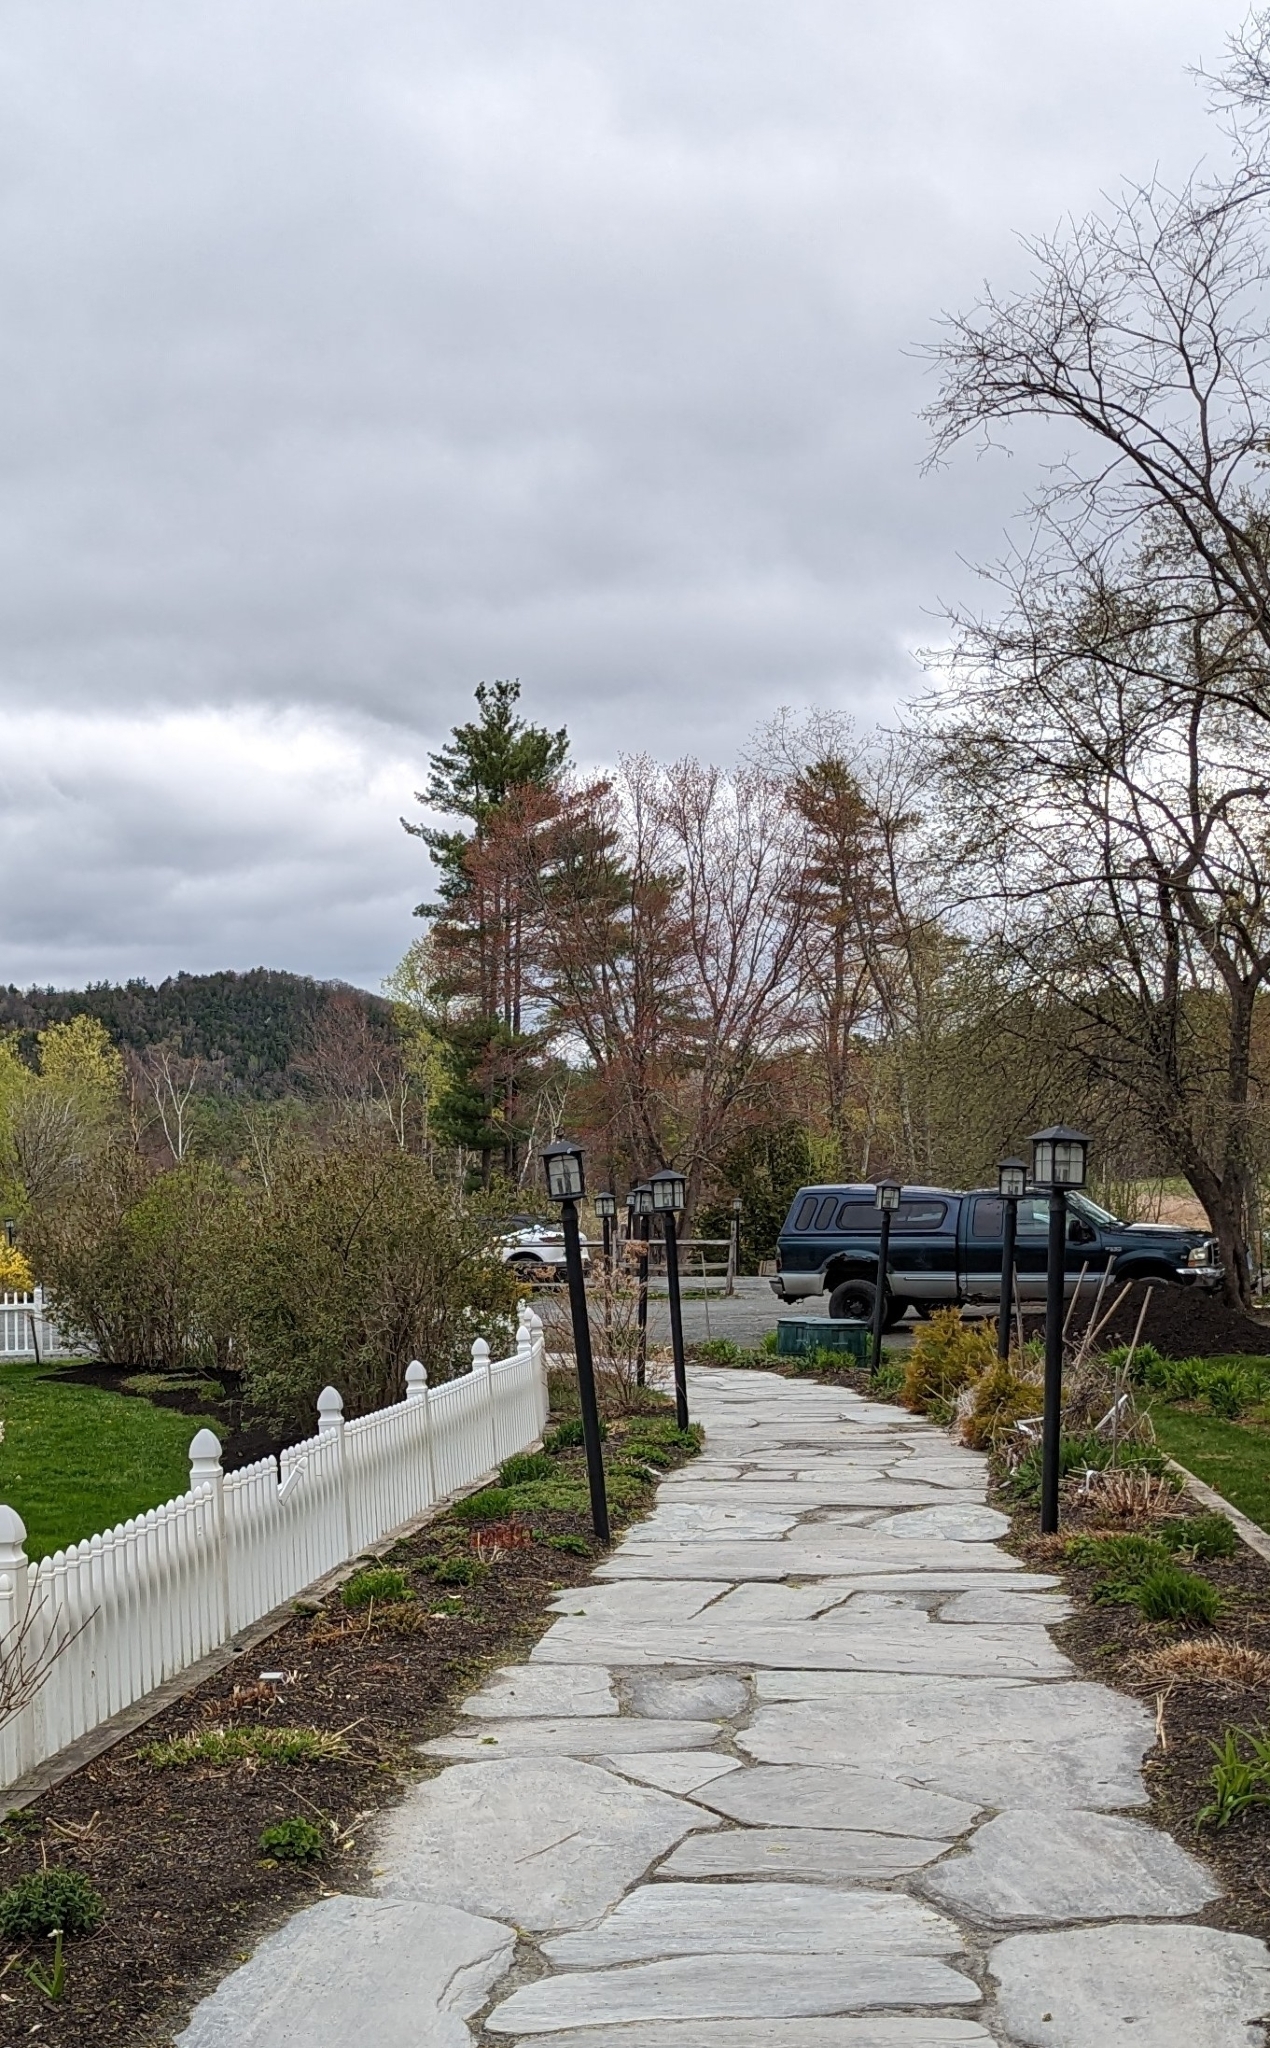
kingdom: Plantae
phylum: Tracheophyta
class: Pinopsida
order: Pinales
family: Pinaceae
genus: Pinus
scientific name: Pinus strobus
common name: Weymouth pine
